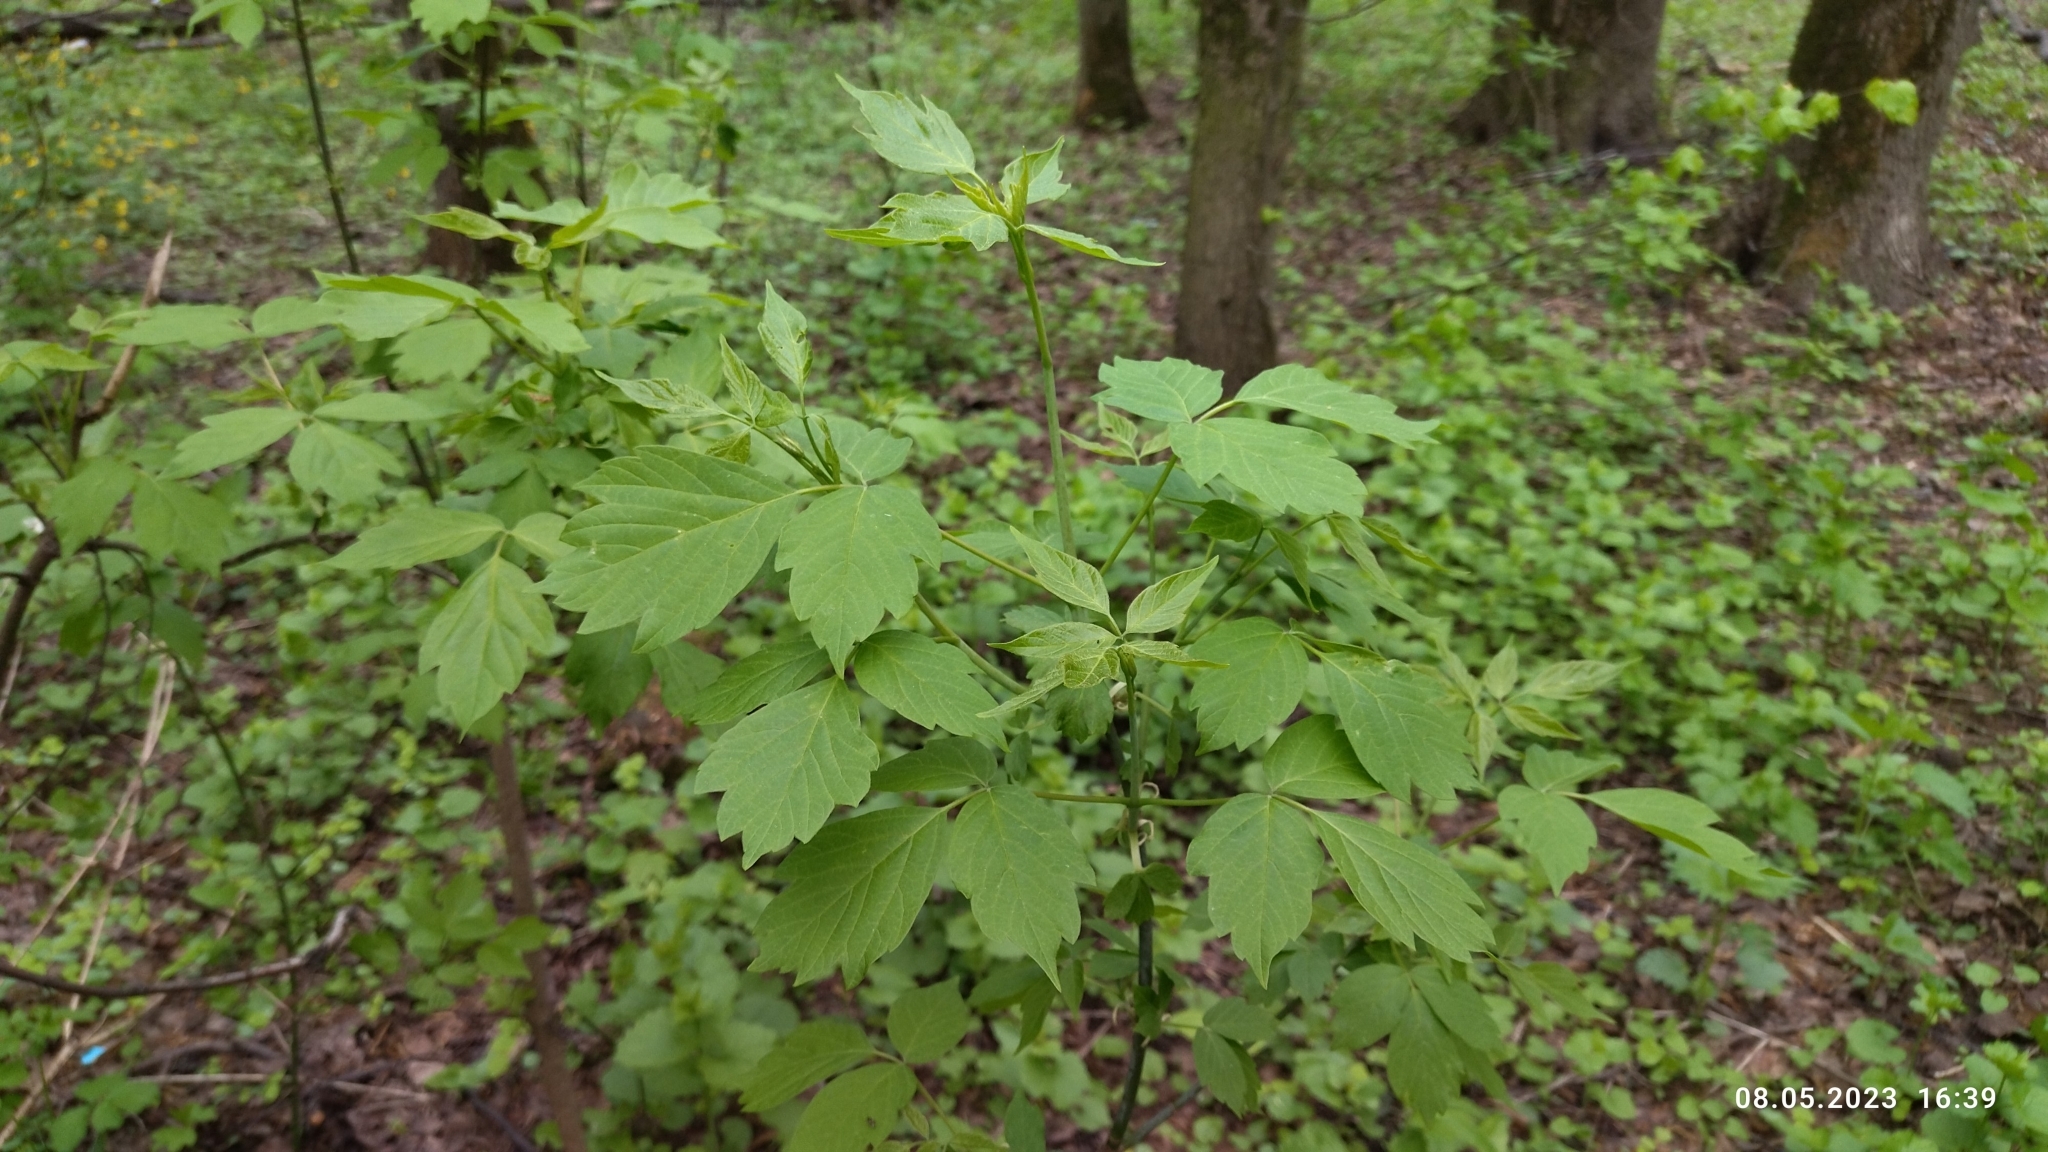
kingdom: Plantae
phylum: Tracheophyta
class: Magnoliopsida
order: Sapindales
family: Sapindaceae
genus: Acer
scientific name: Acer negundo
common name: Ashleaf maple
